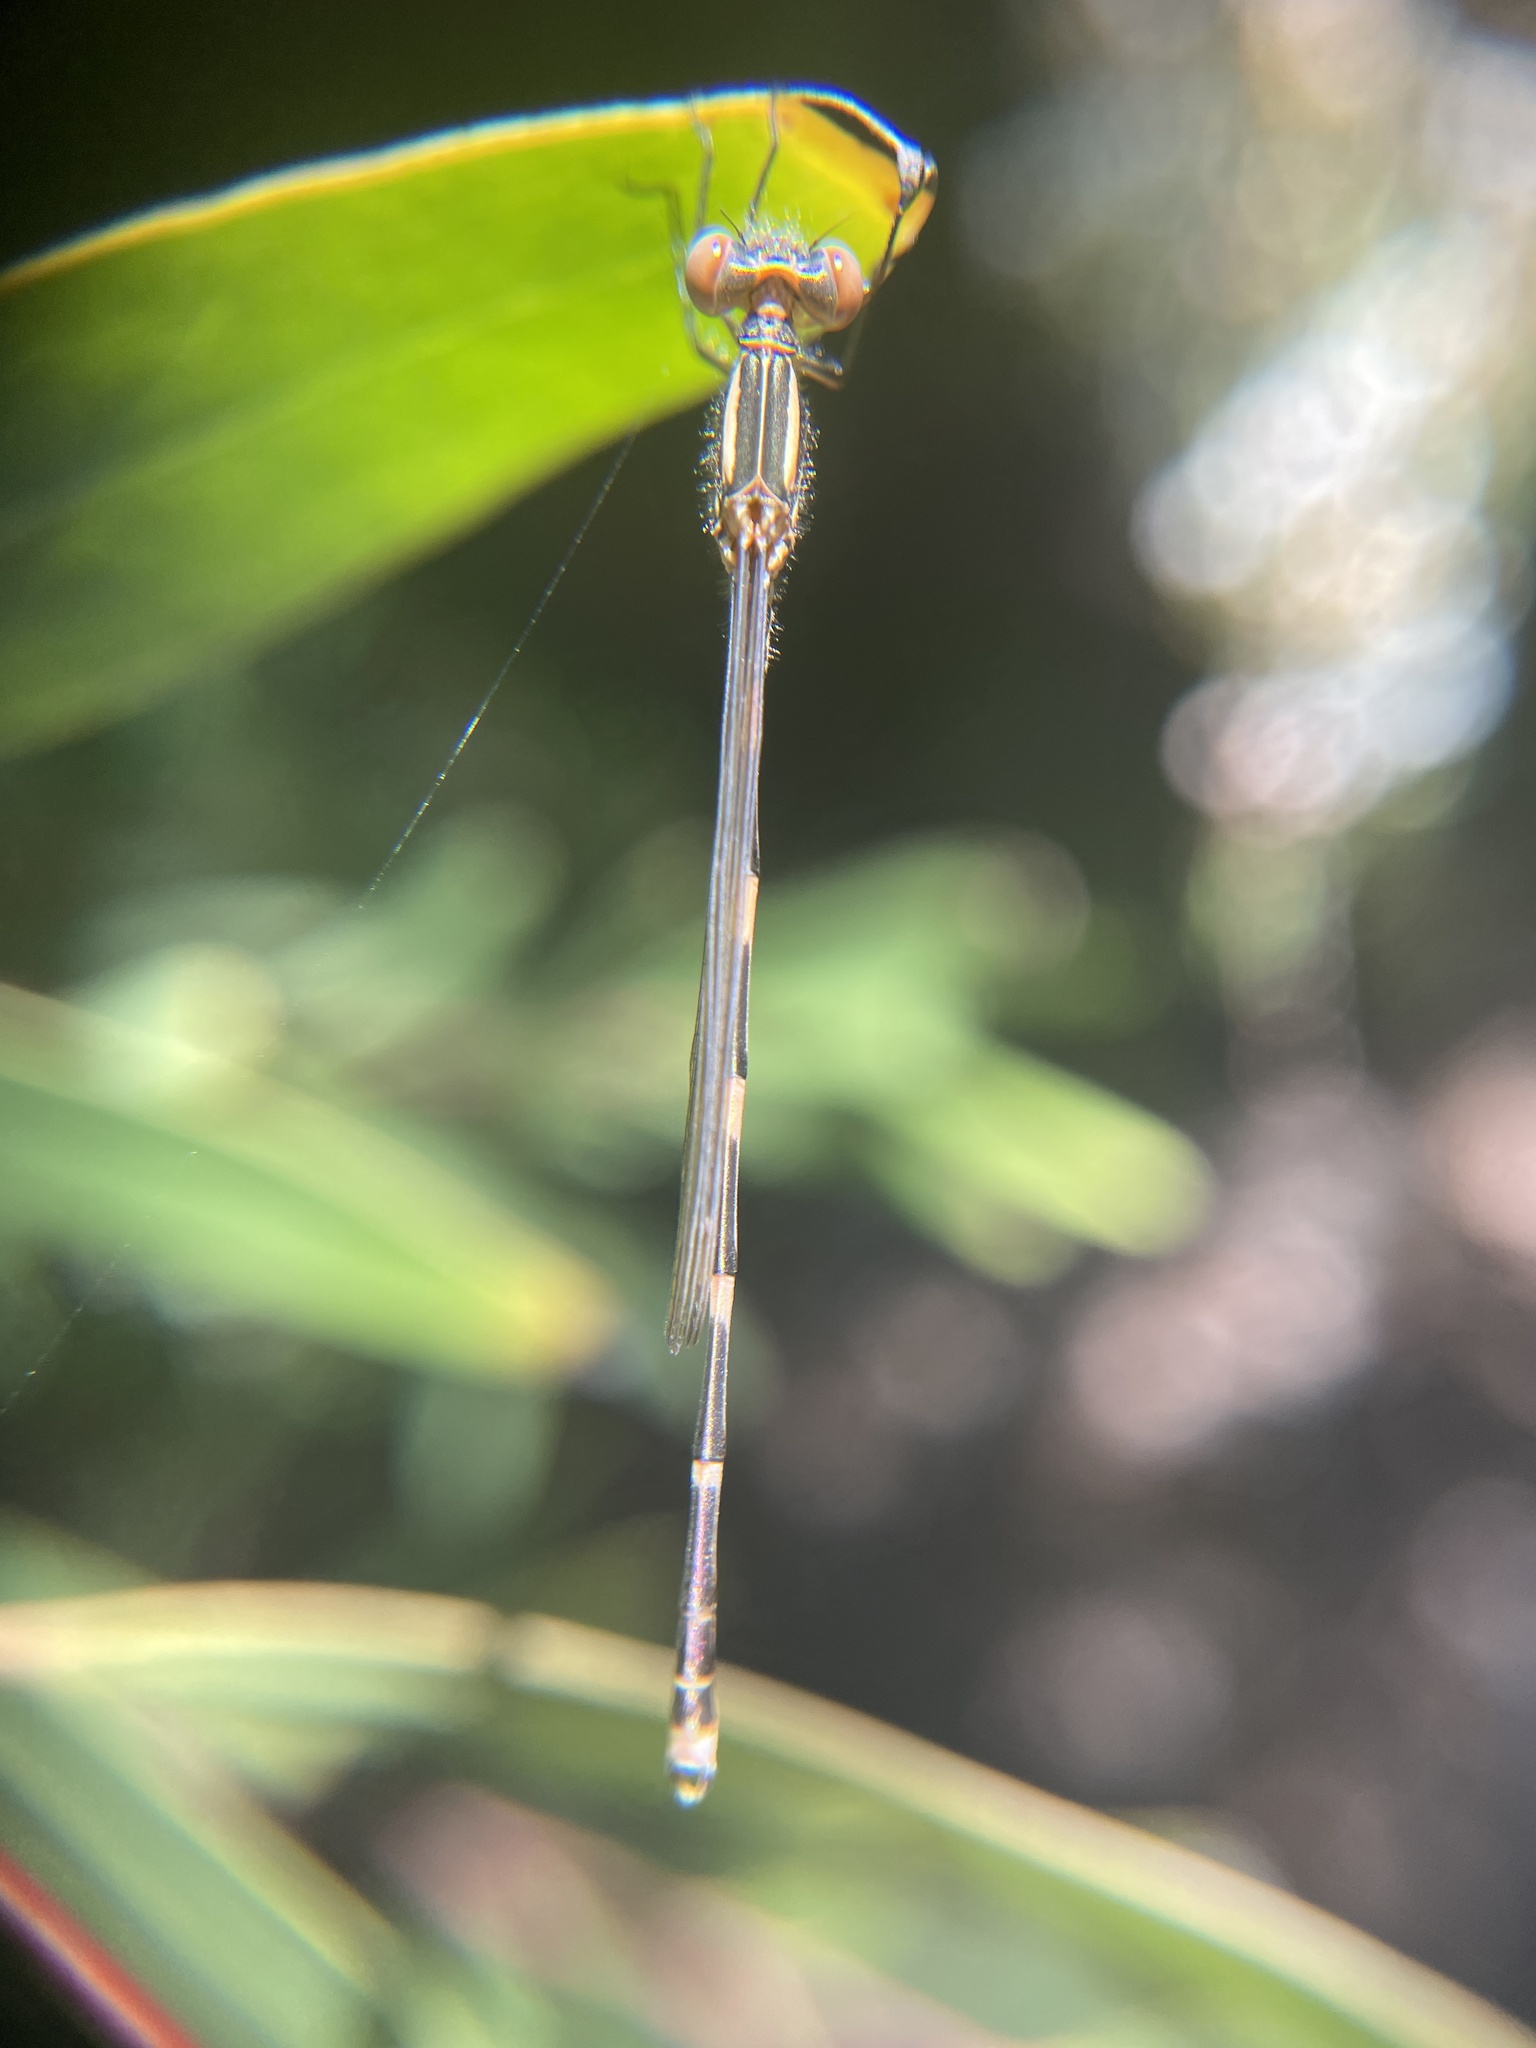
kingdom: Animalia
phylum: Arthropoda
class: Insecta
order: Odonata
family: Lestidae
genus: Austrolestes
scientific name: Austrolestes leda
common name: Wandering ringtail
